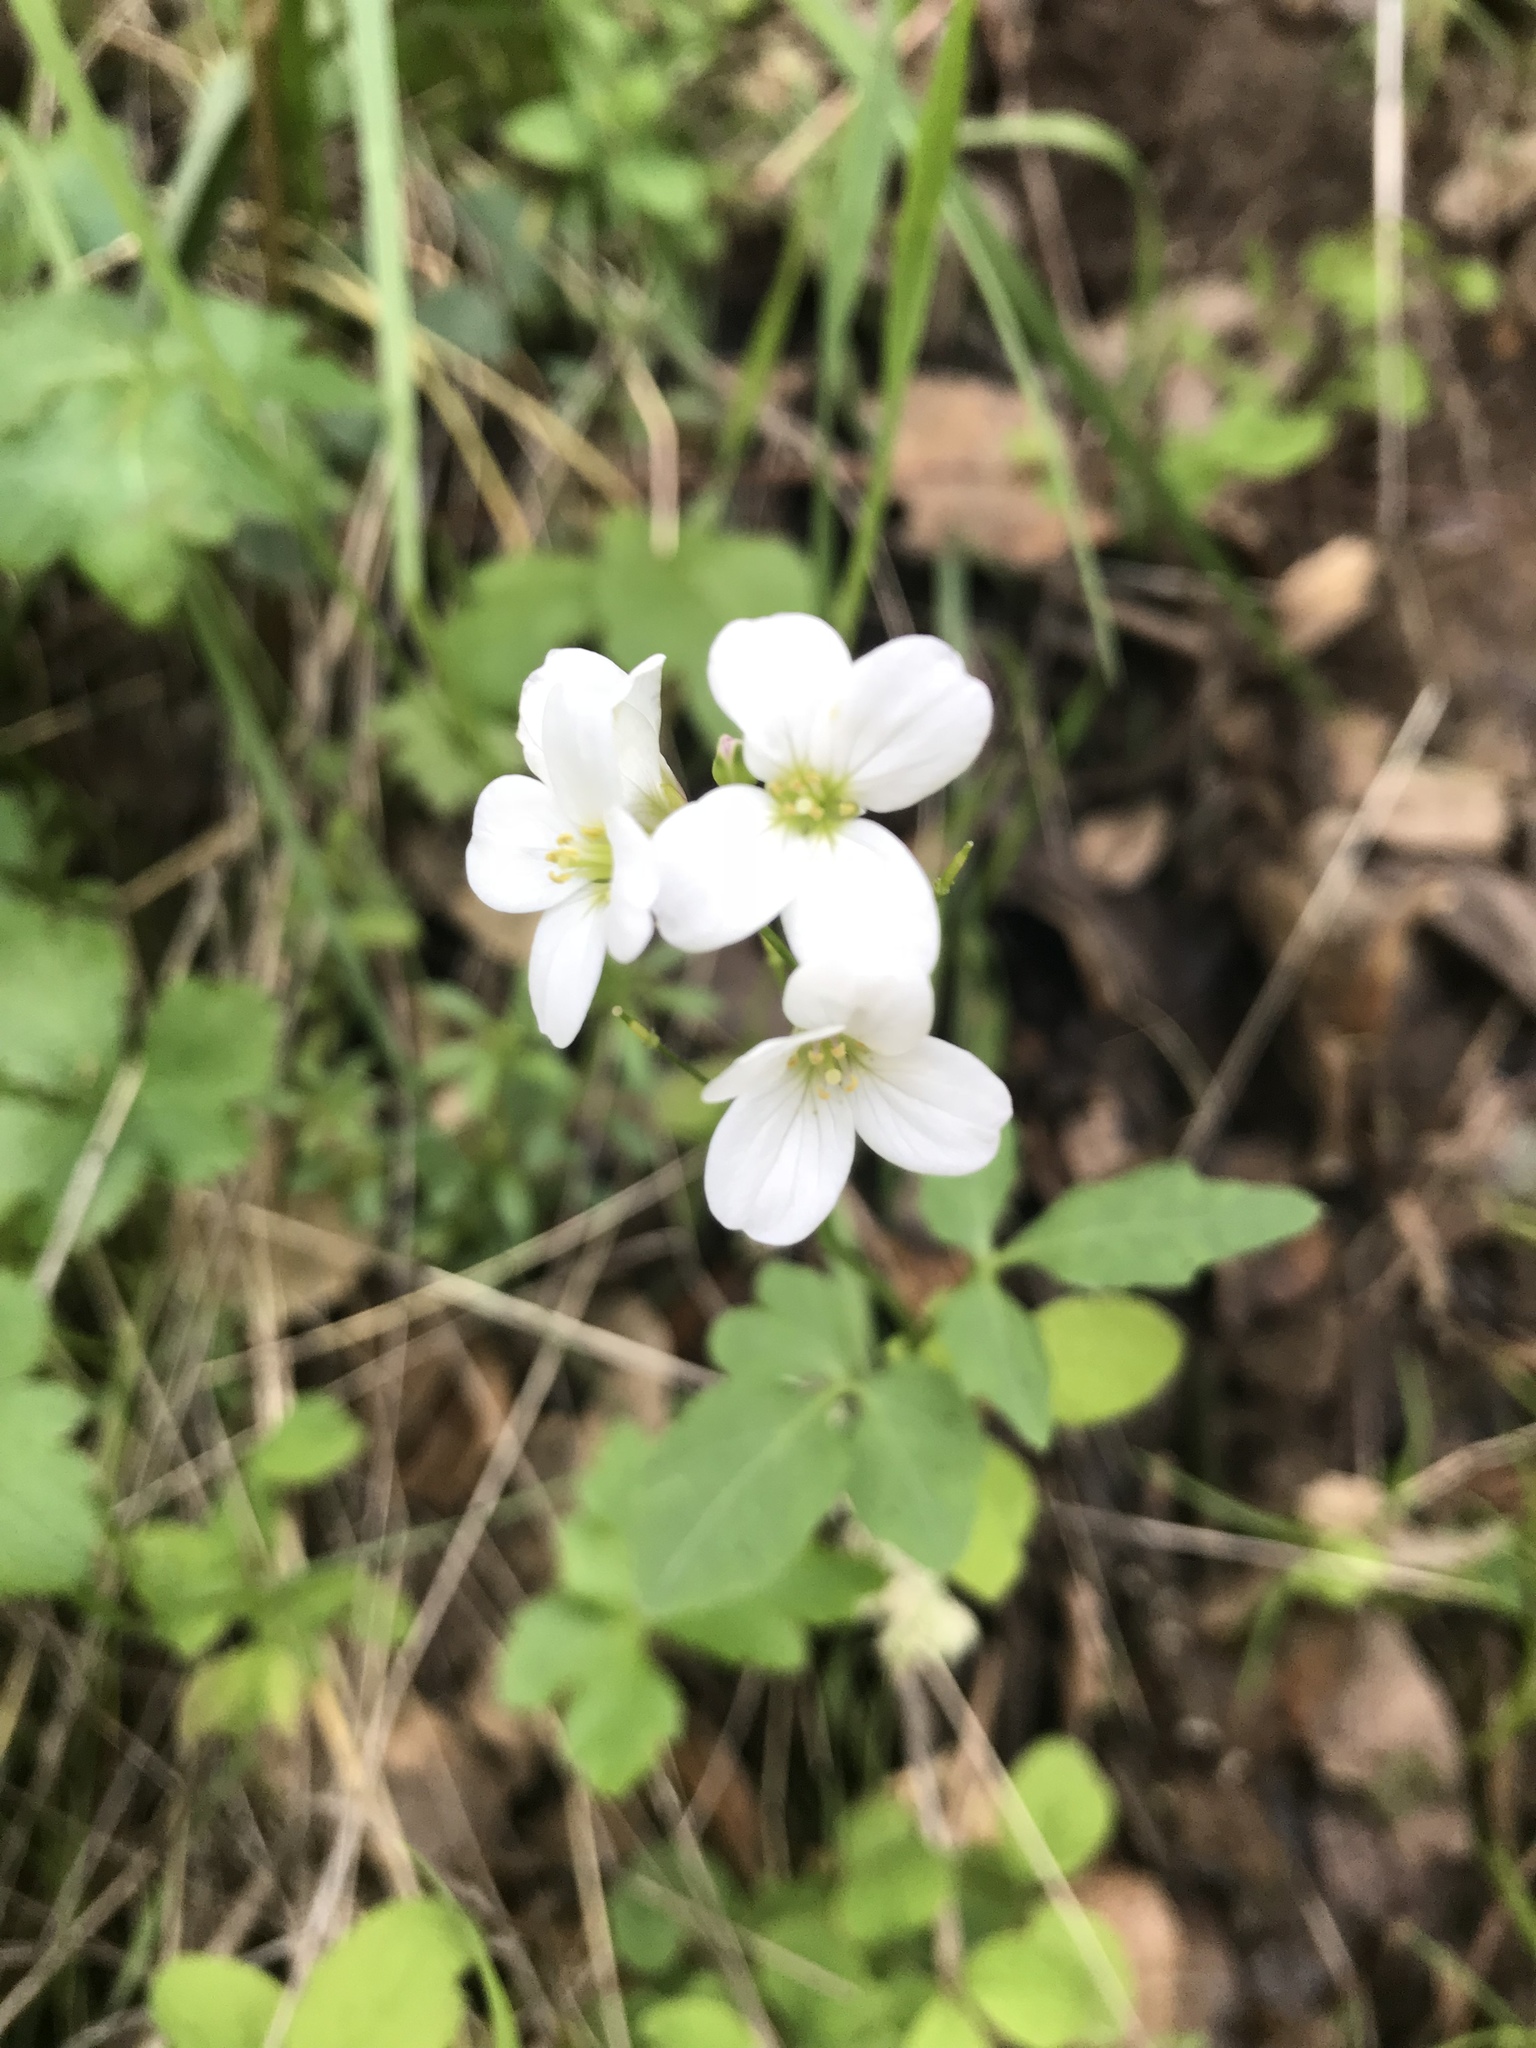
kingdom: Plantae
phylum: Tracheophyta
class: Magnoliopsida
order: Brassicales
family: Brassicaceae
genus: Cardamine
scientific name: Cardamine californica
